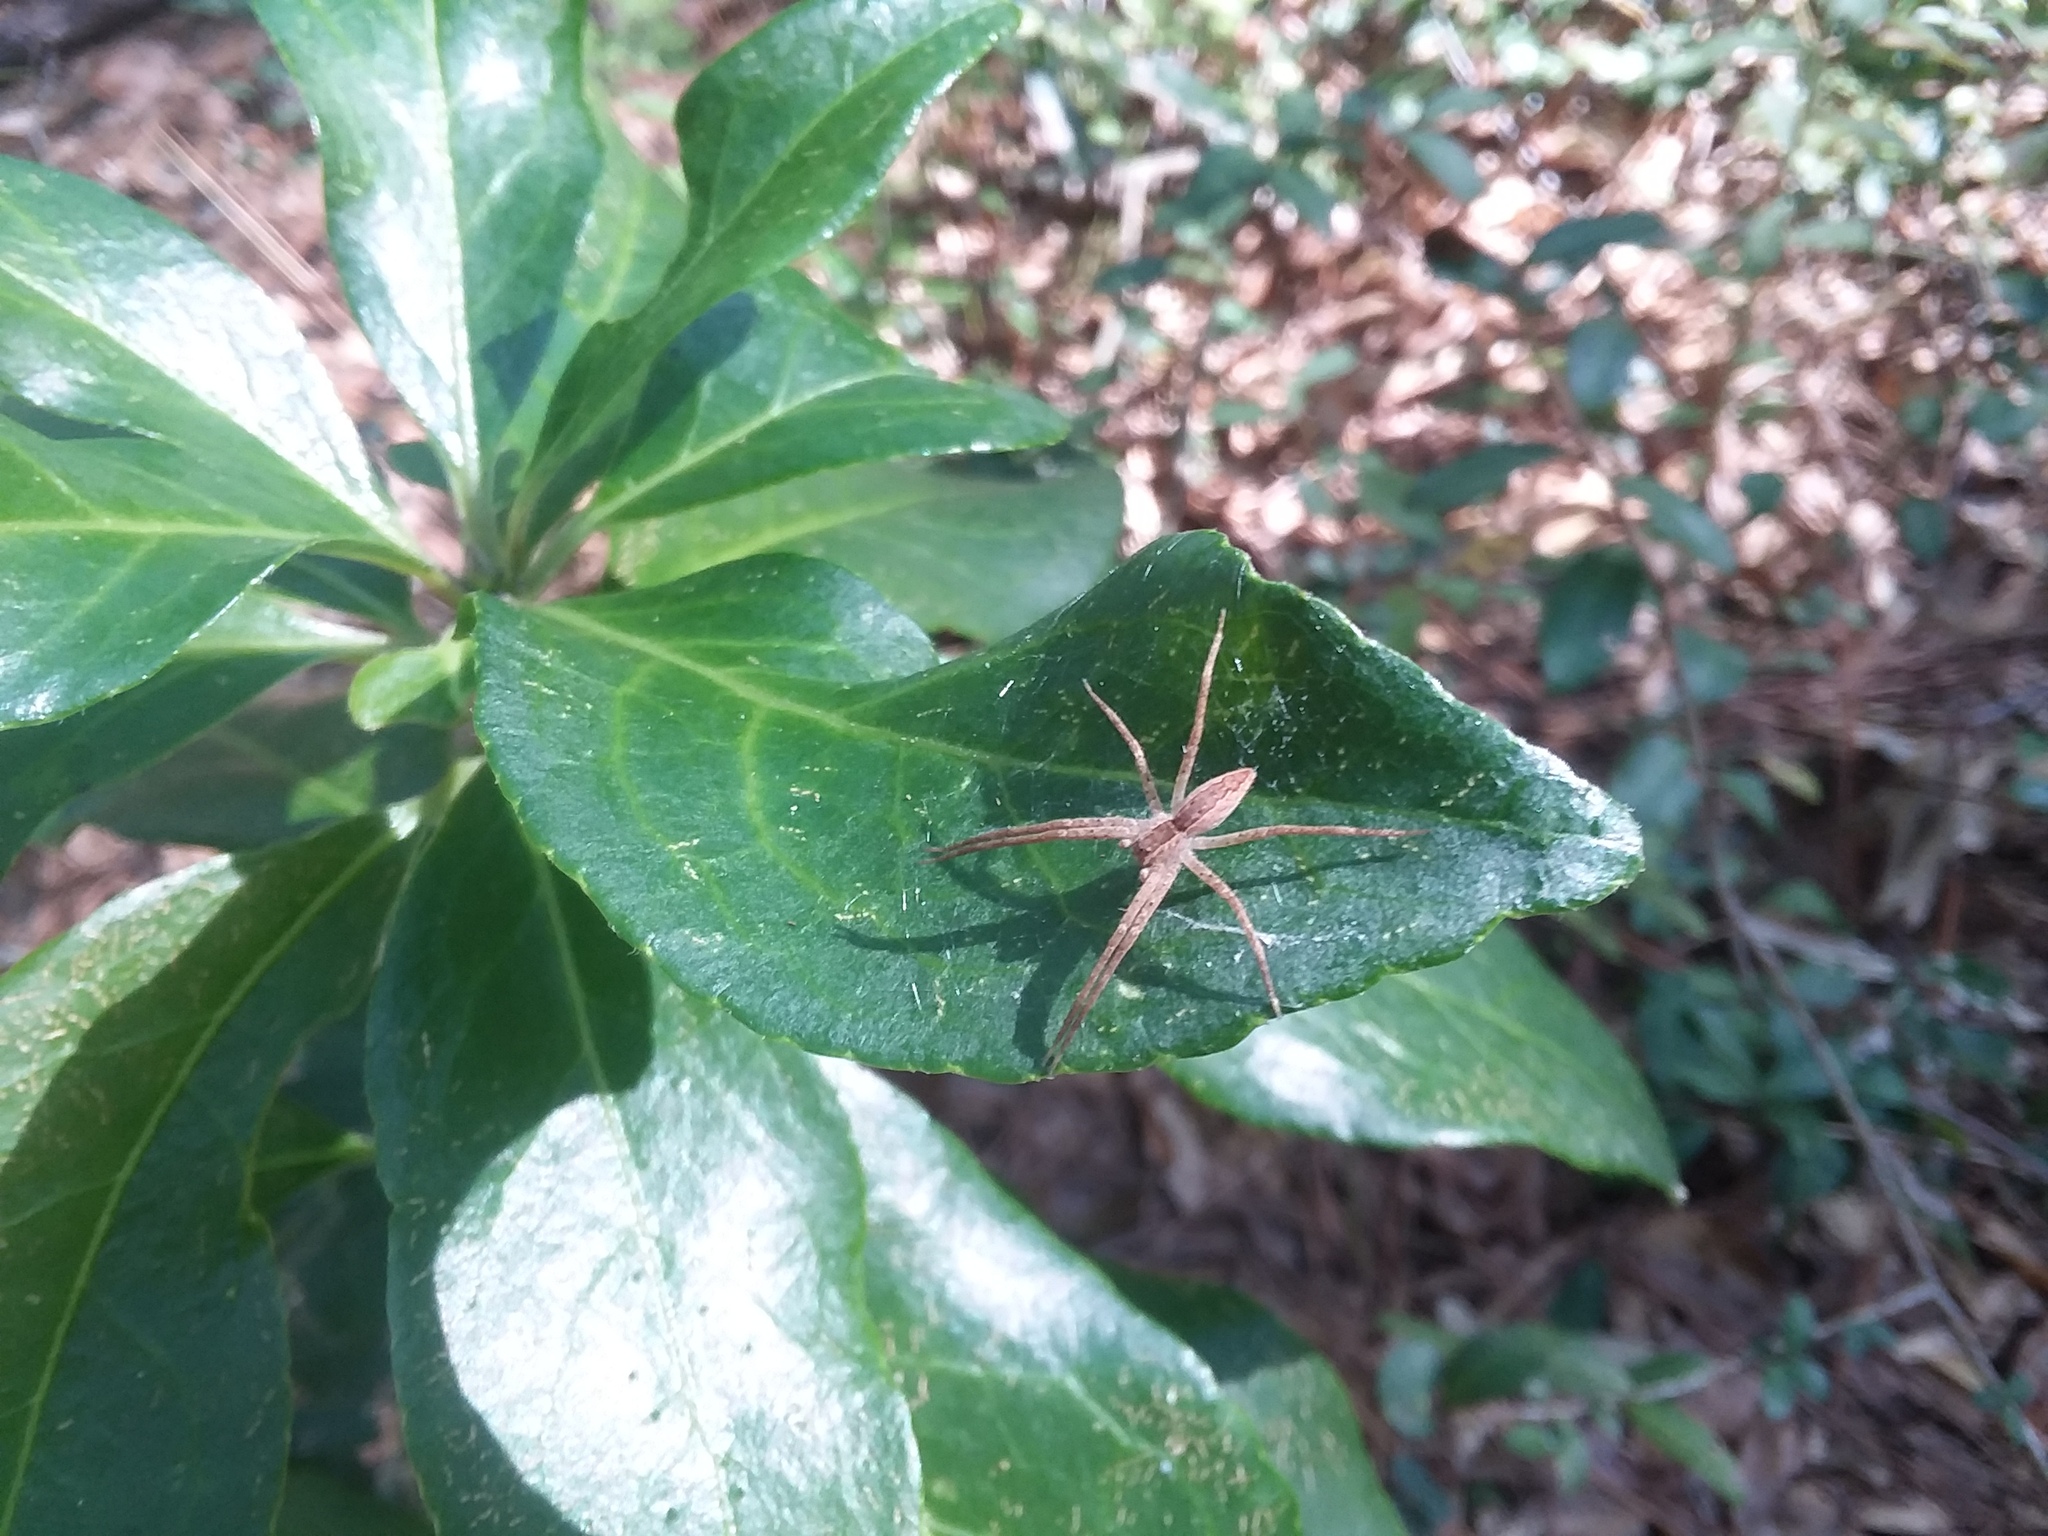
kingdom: Animalia
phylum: Arthropoda
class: Arachnida
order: Araneae
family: Pisauridae
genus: Pisaurina
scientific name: Pisaurina mira
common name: American nursery web spider
